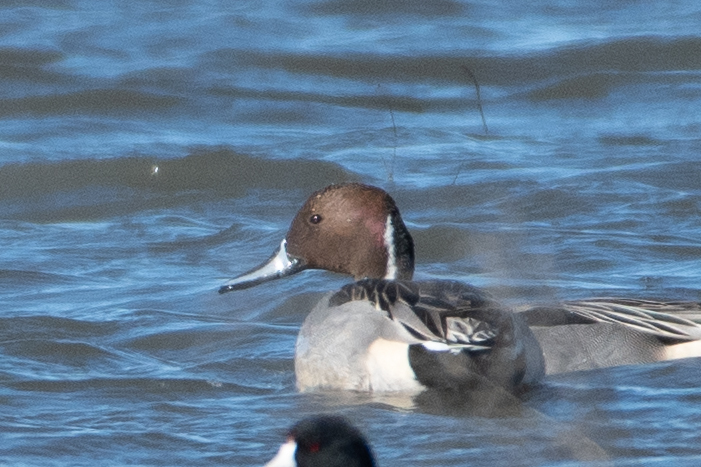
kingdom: Animalia
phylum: Chordata
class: Aves
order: Anseriformes
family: Anatidae
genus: Anas
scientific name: Anas acuta
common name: Northern pintail
